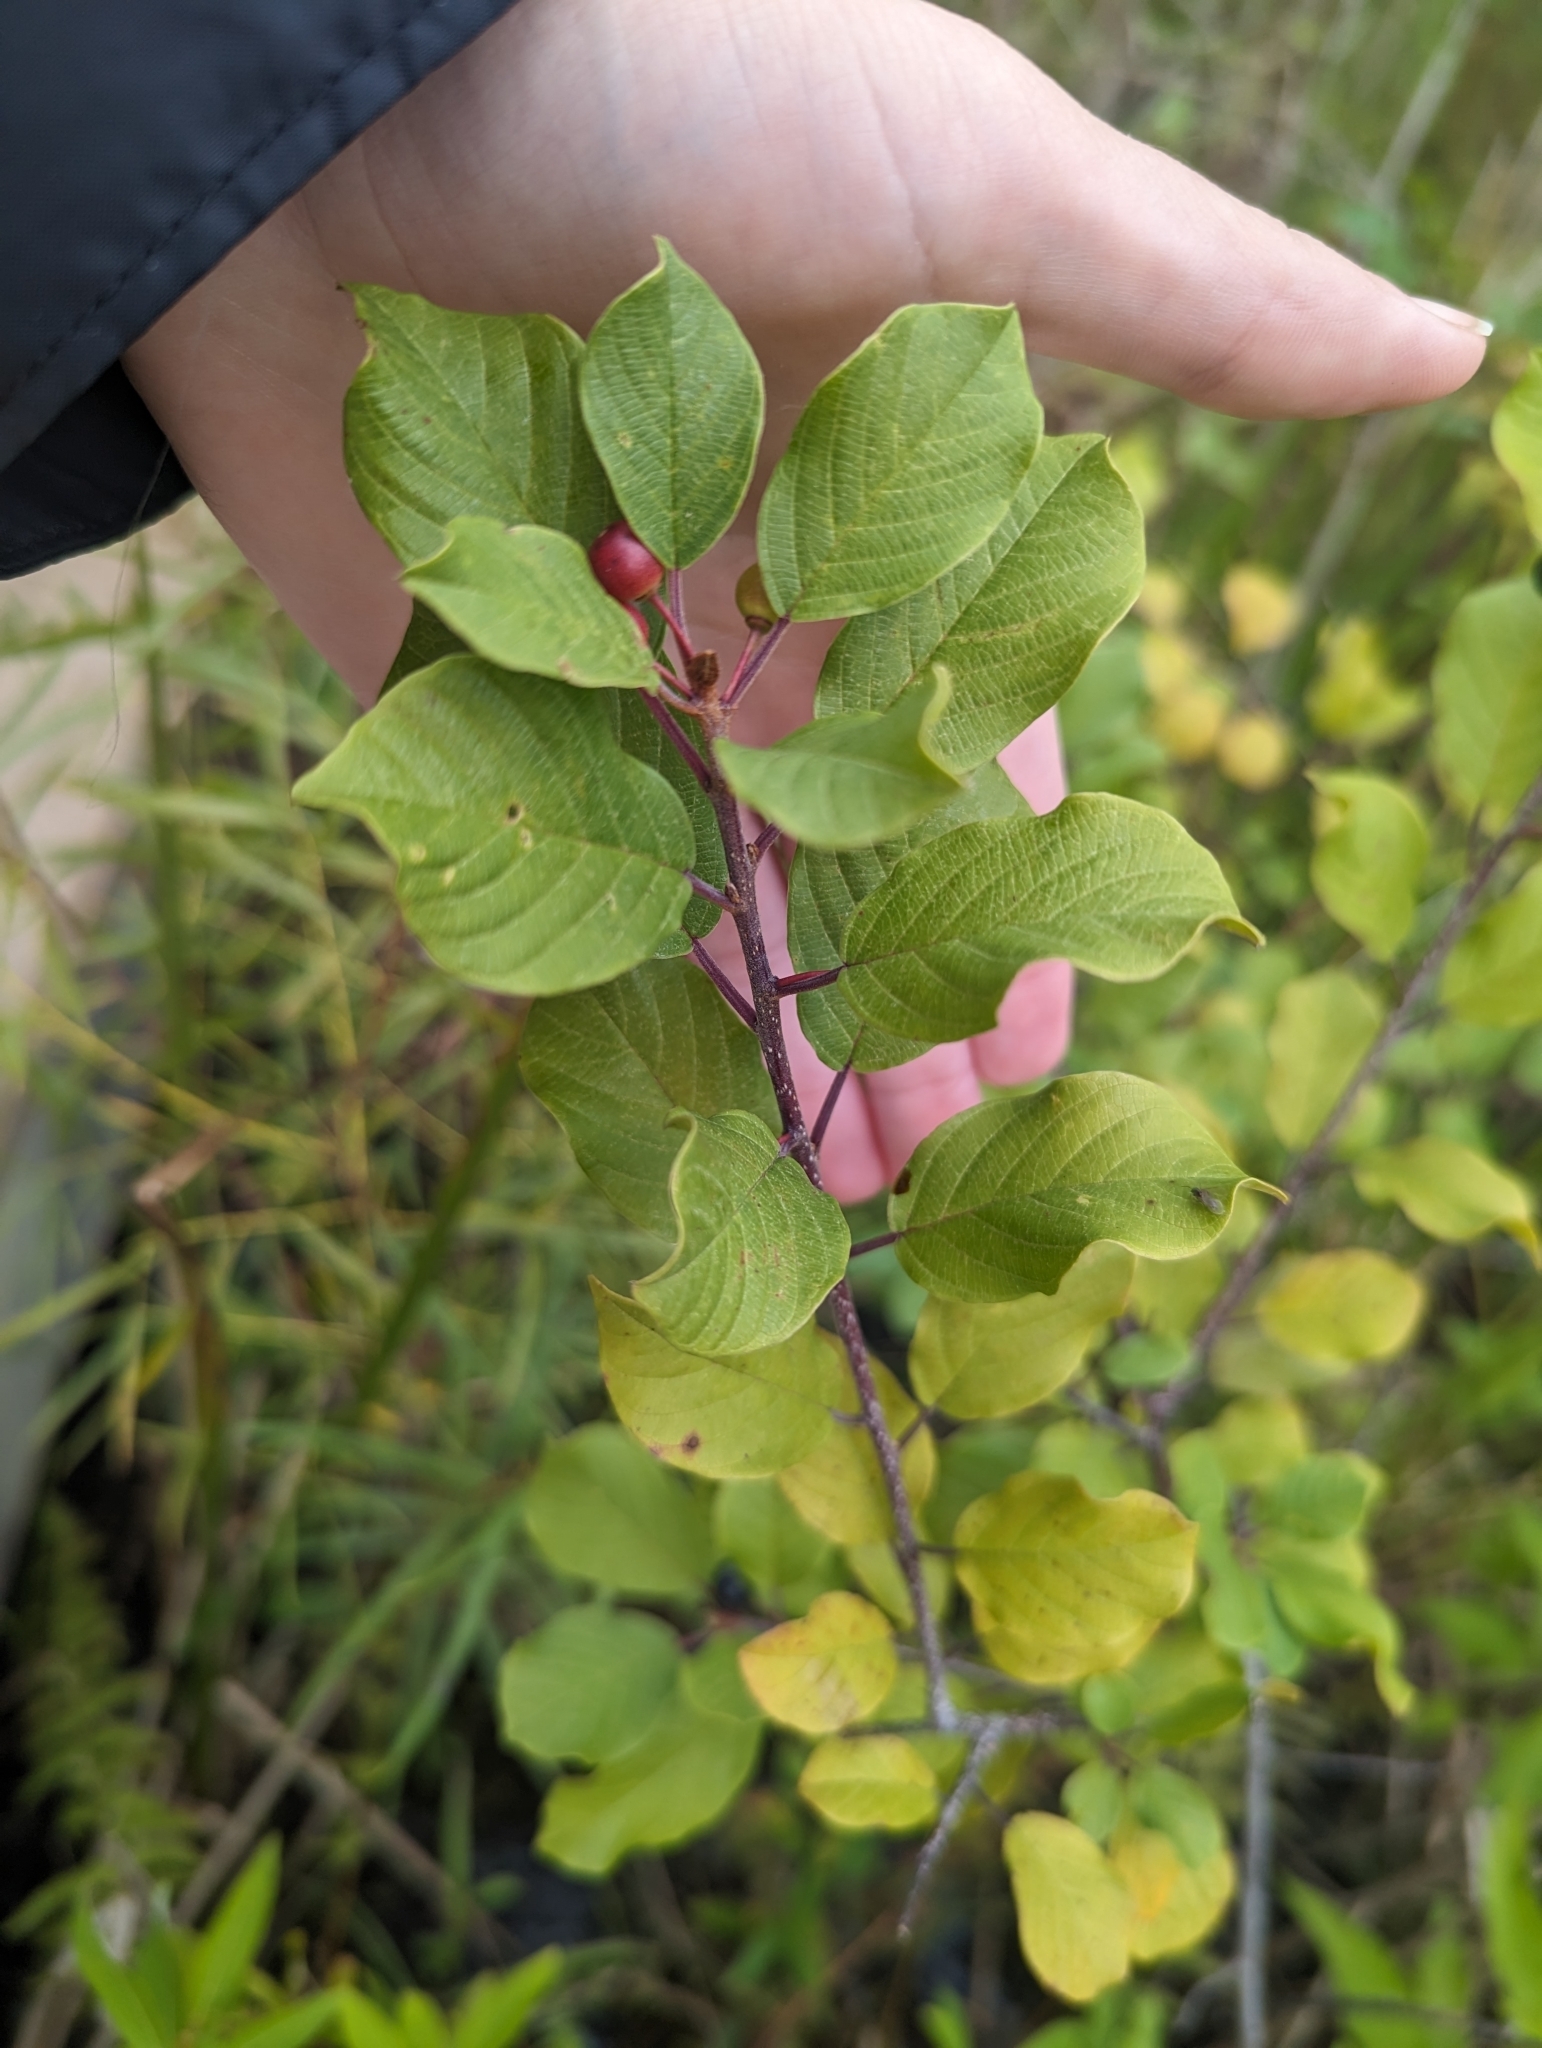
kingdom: Plantae
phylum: Tracheophyta
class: Magnoliopsida
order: Rosales
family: Rhamnaceae
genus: Frangula
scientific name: Frangula alnus
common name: Alder buckthorn
